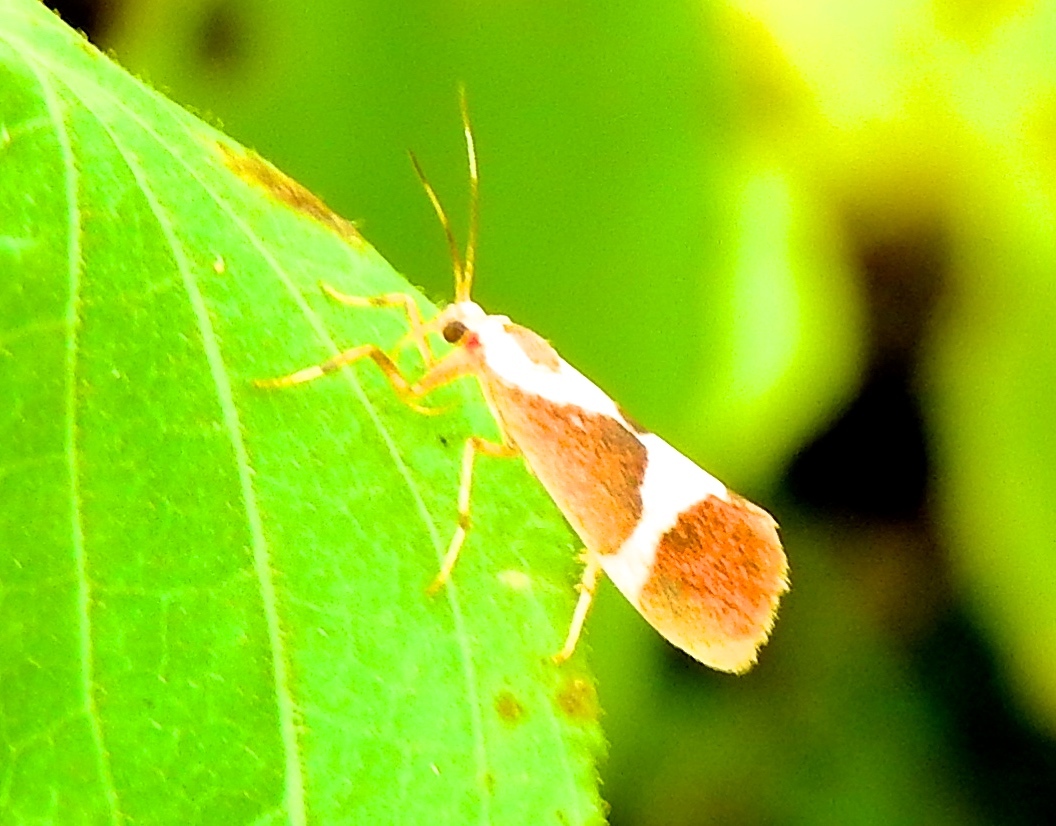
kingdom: Animalia
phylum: Arthropoda
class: Insecta
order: Lepidoptera
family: Erebidae
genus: Cisthene
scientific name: Cisthene
